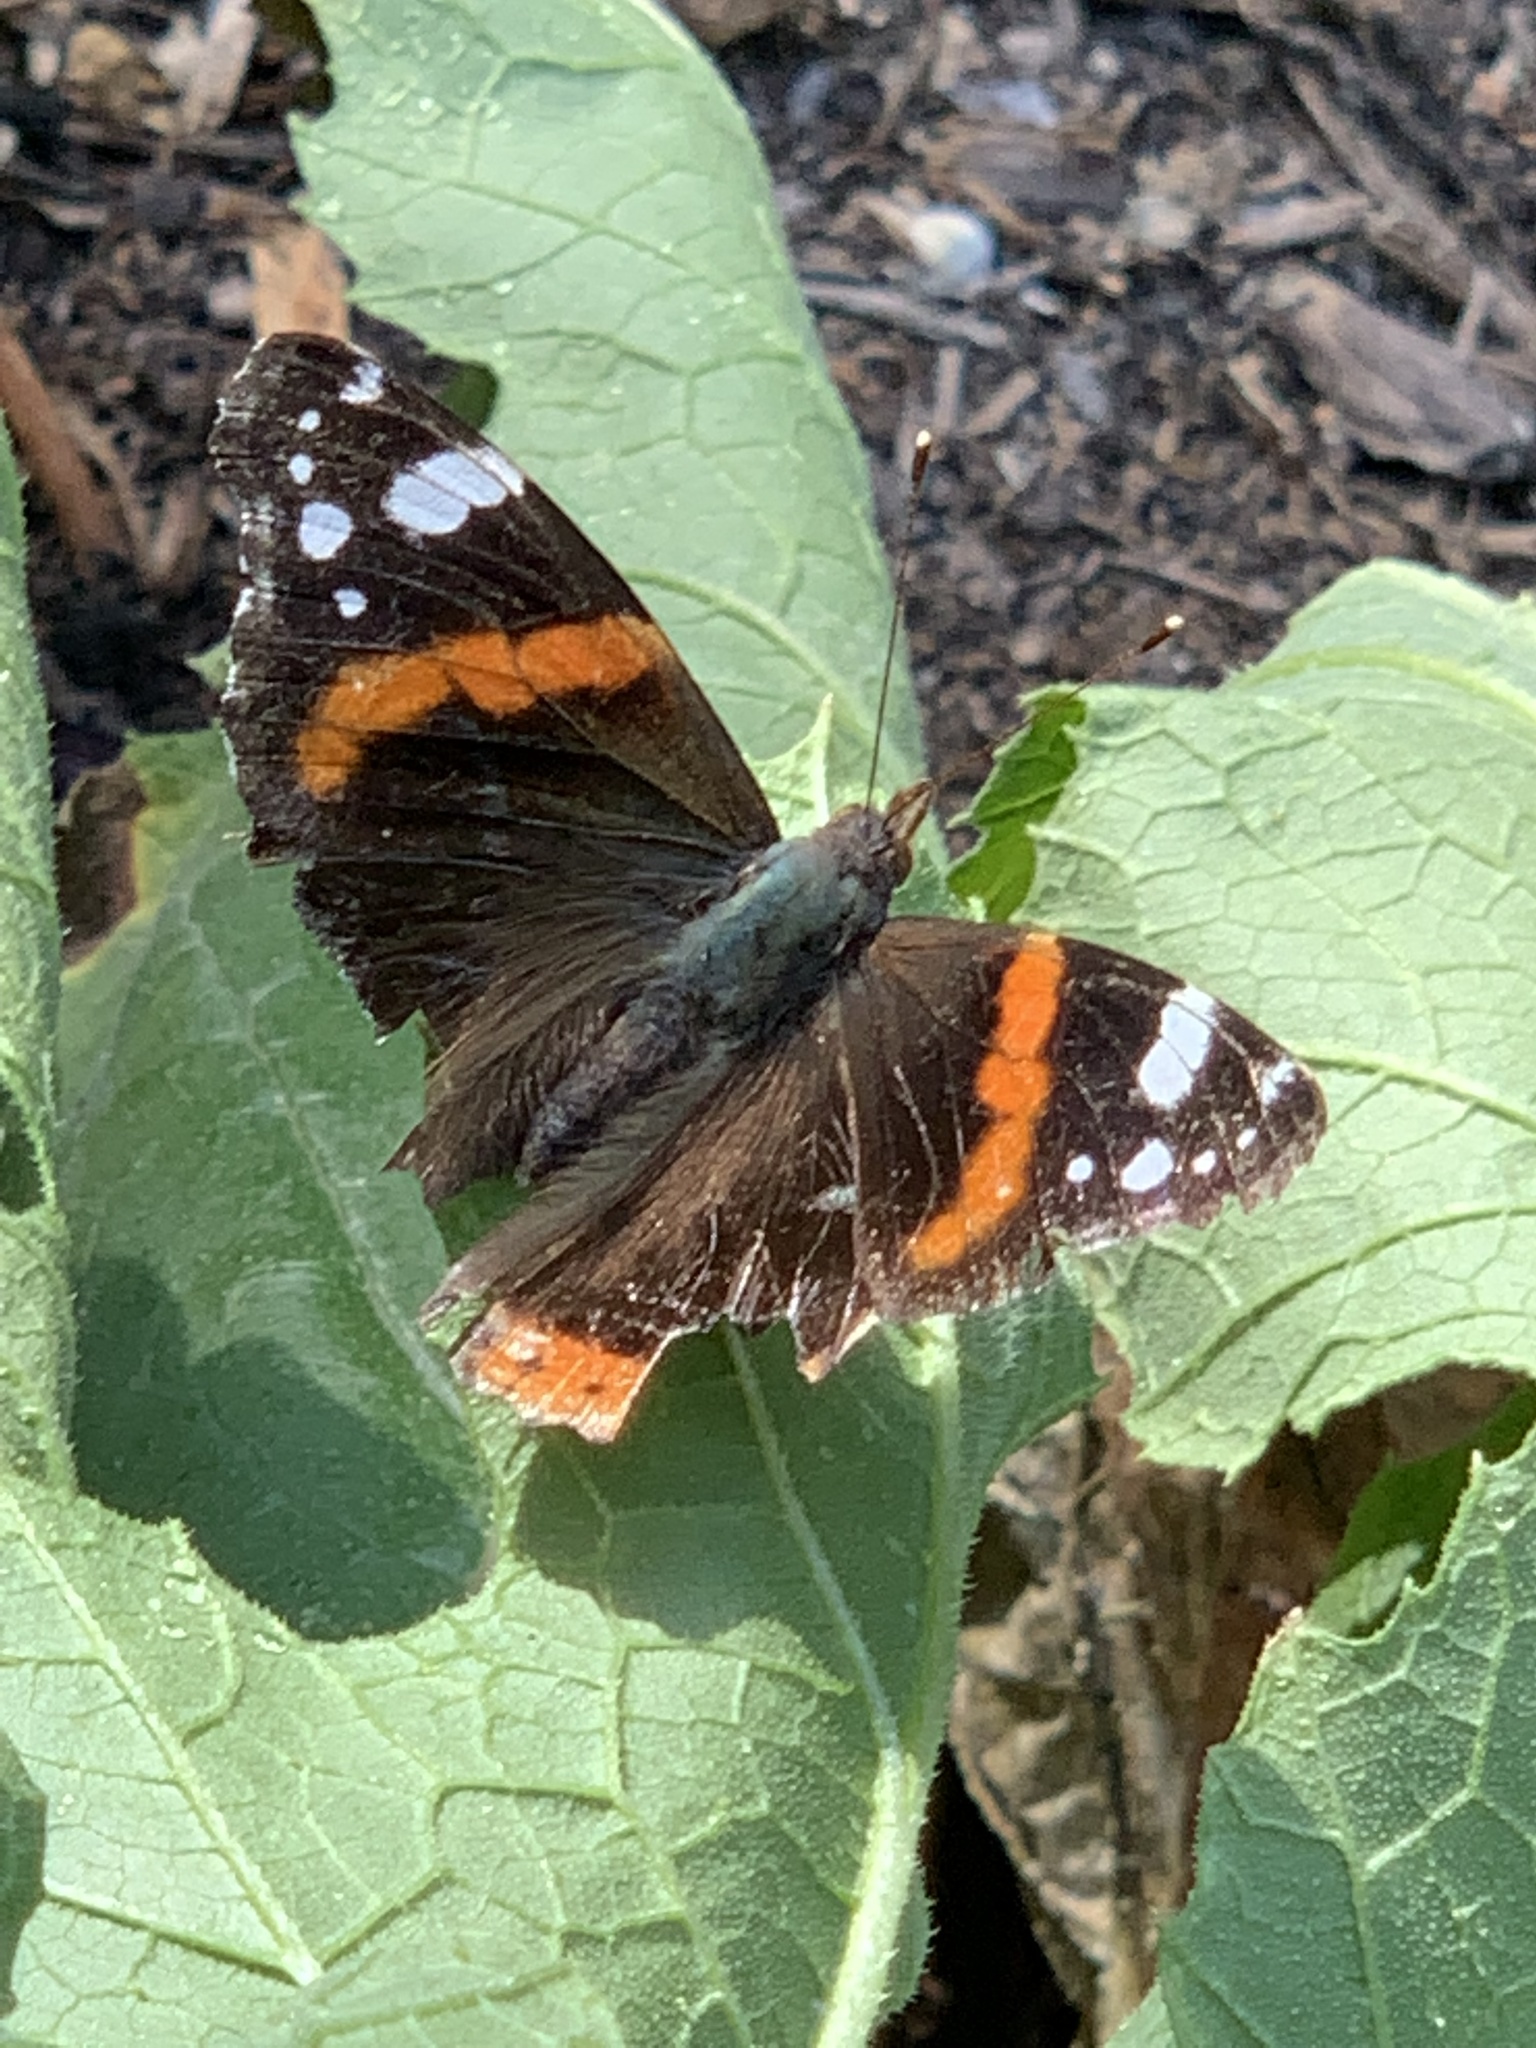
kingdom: Animalia
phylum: Arthropoda
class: Insecta
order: Lepidoptera
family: Nymphalidae
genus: Vanessa
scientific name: Vanessa atalanta
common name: Red admiral
